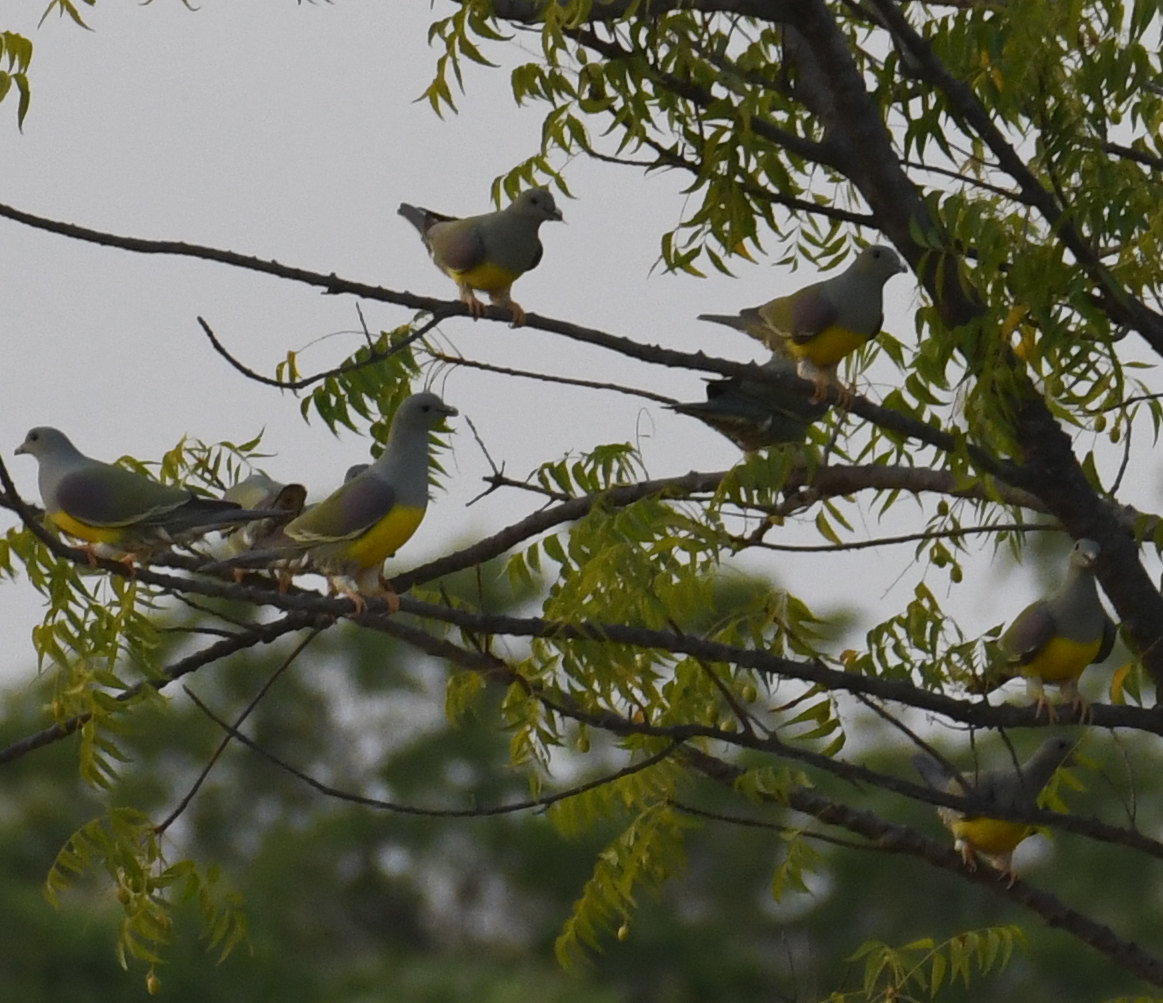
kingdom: Animalia
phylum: Chordata
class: Aves
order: Columbiformes
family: Columbidae
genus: Treron
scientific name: Treron waalia
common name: Bruce's green pigeon
